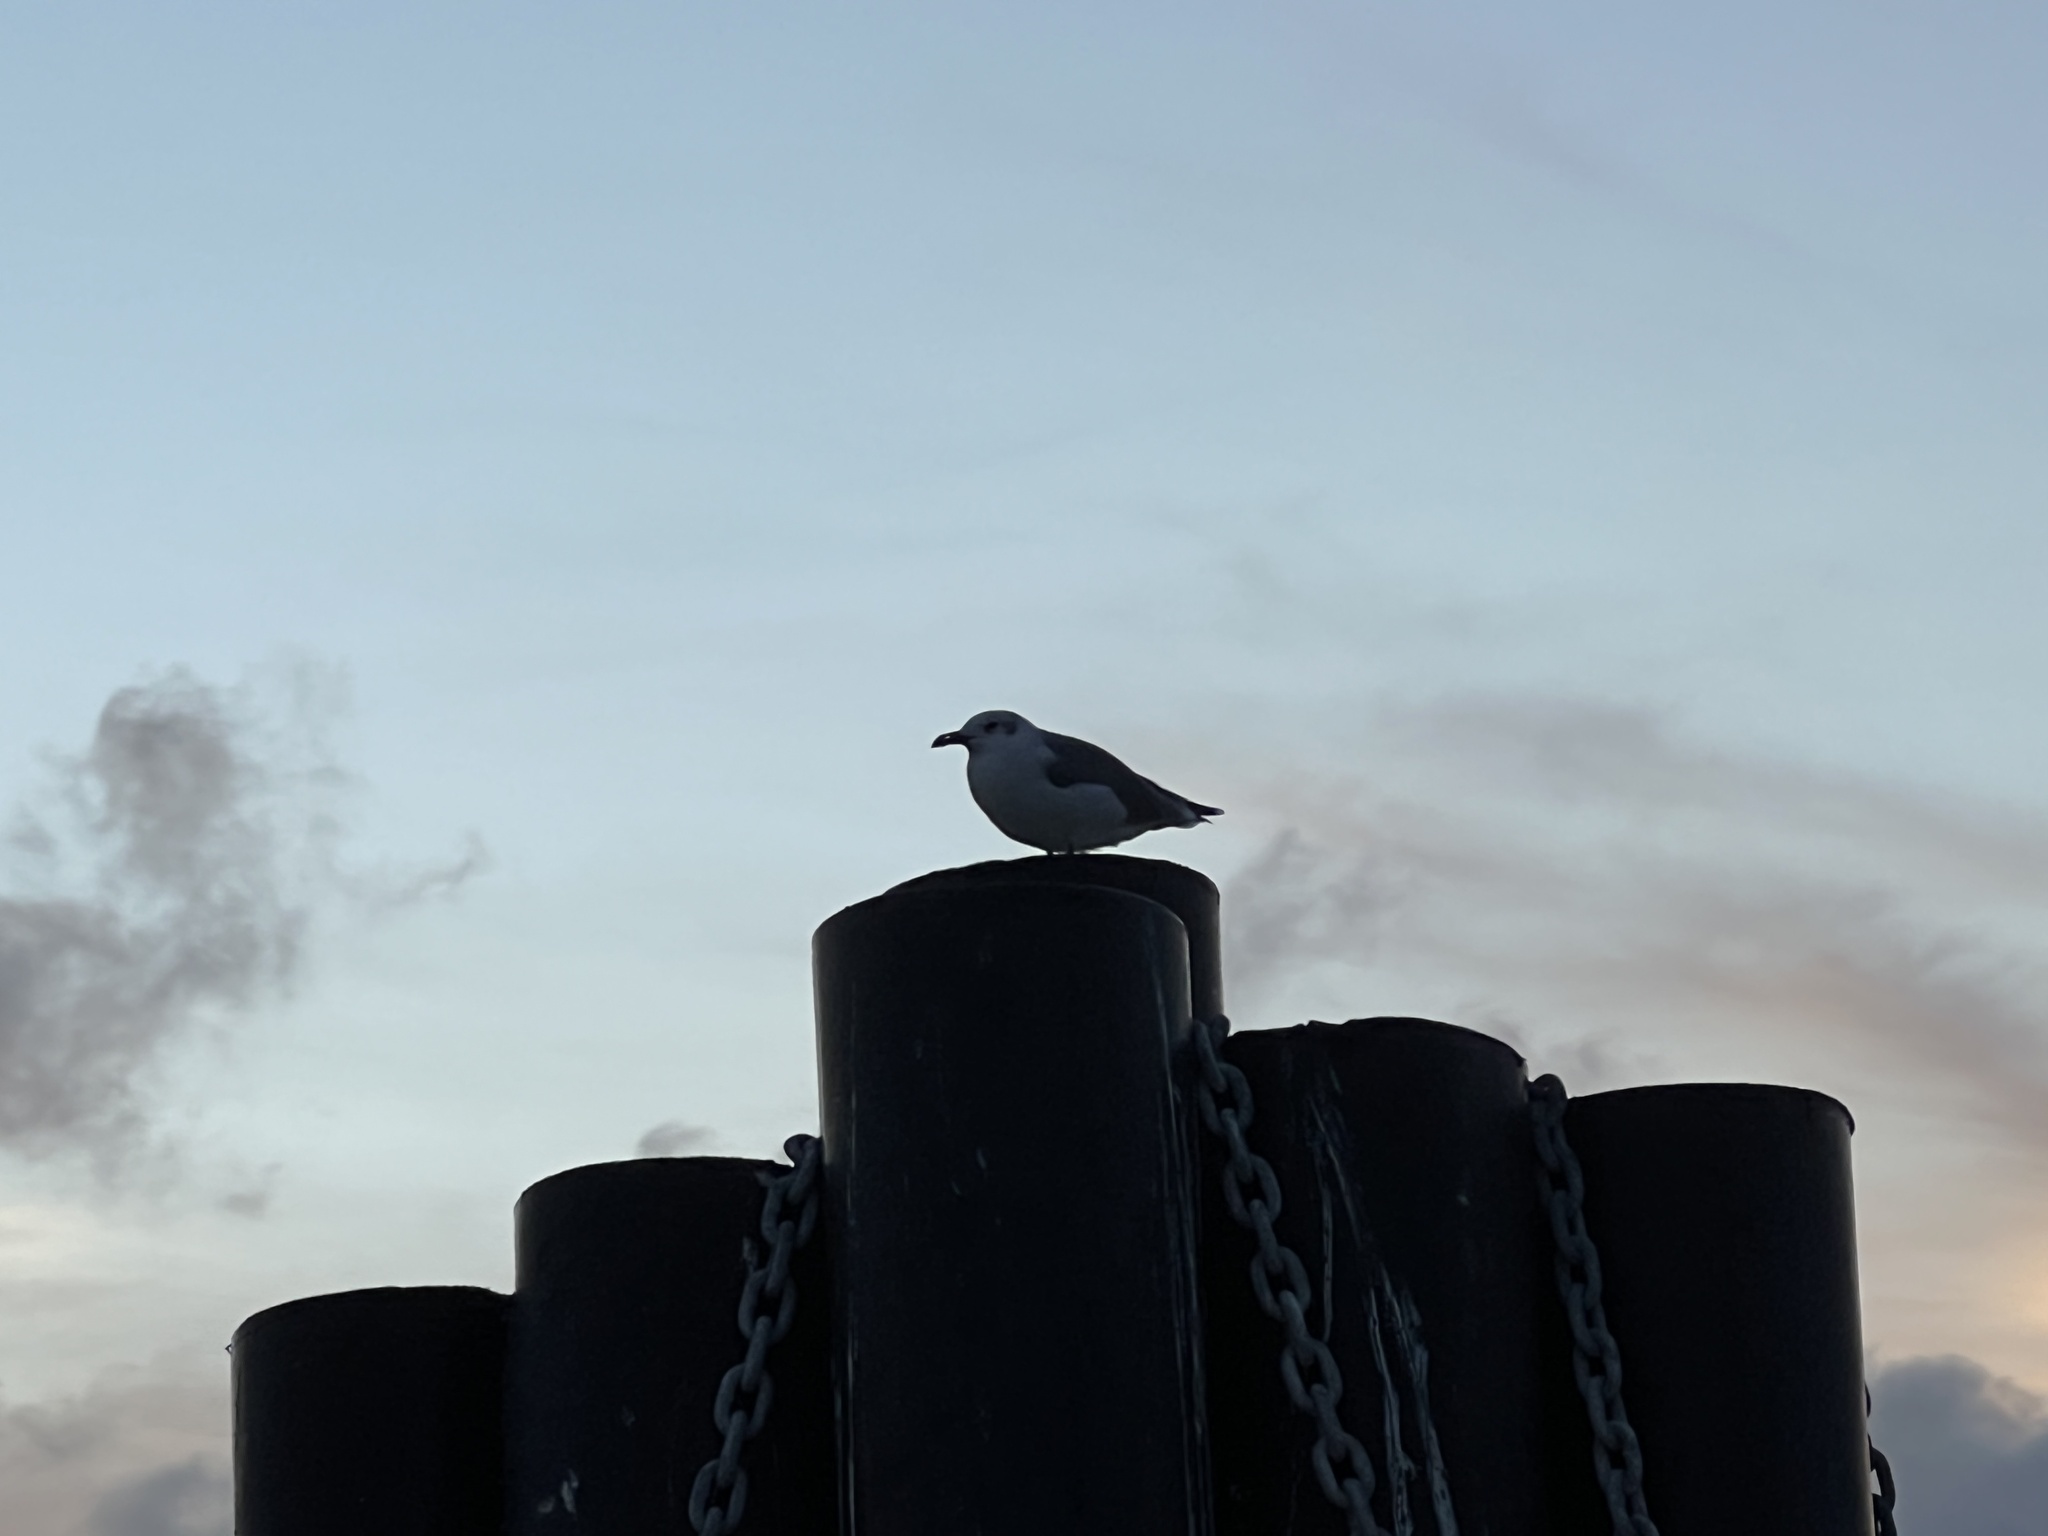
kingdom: Animalia
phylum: Chordata
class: Aves
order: Charadriiformes
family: Laridae
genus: Leucophaeus
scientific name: Leucophaeus atricilla
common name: Laughing gull
